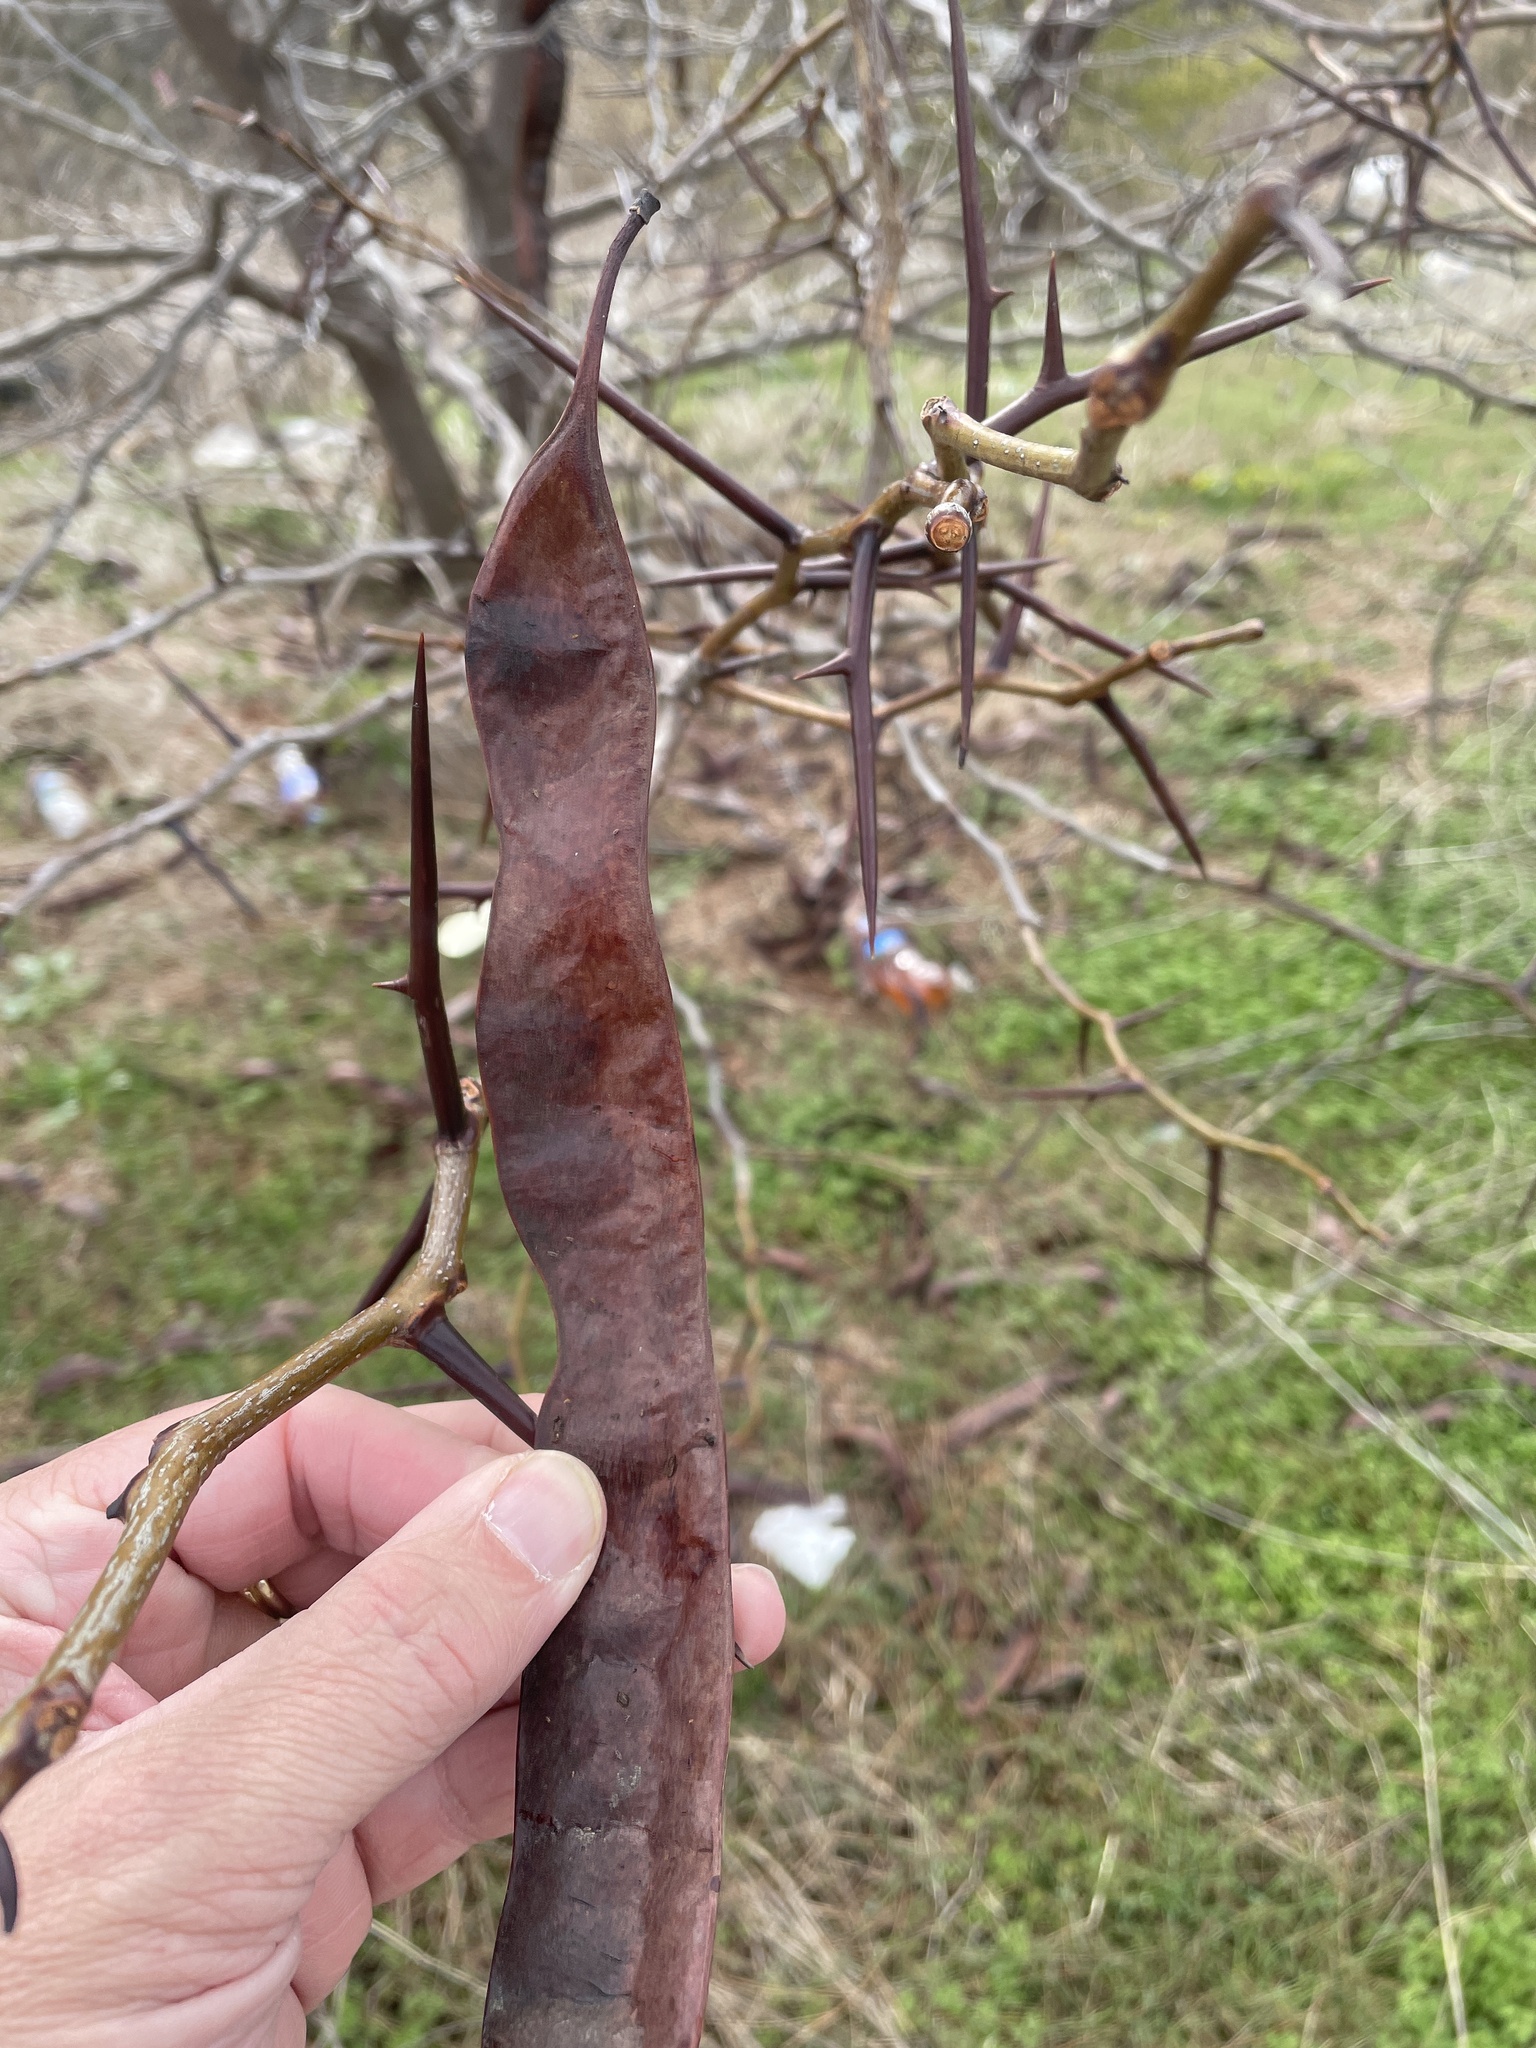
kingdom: Plantae
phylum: Tracheophyta
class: Magnoliopsida
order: Fabales
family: Fabaceae
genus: Gleditsia
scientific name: Gleditsia triacanthos
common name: Common honeylocust
